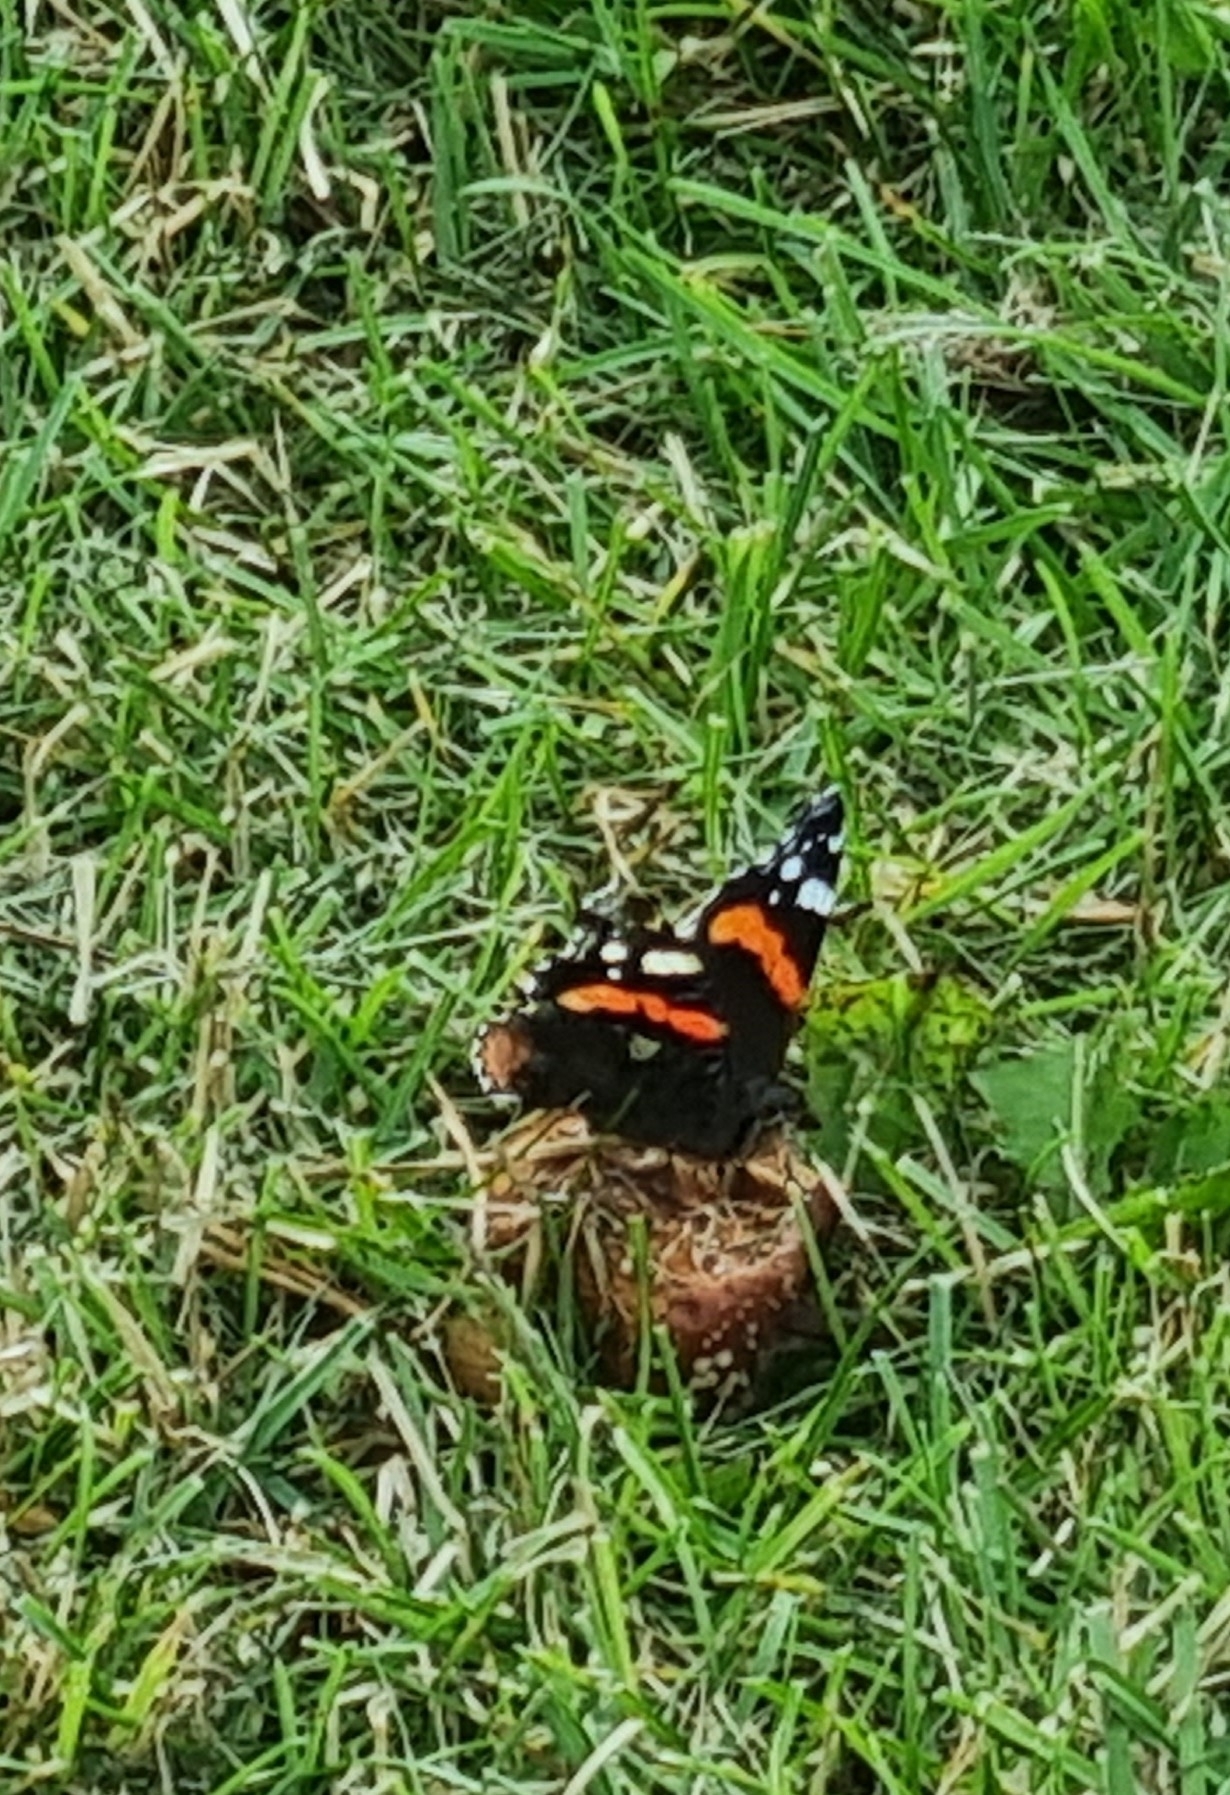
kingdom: Animalia
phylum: Arthropoda
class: Insecta
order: Lepidoptera
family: Nymphalidae
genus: Vanessa
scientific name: Vanessa atalanta
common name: Red admiral
